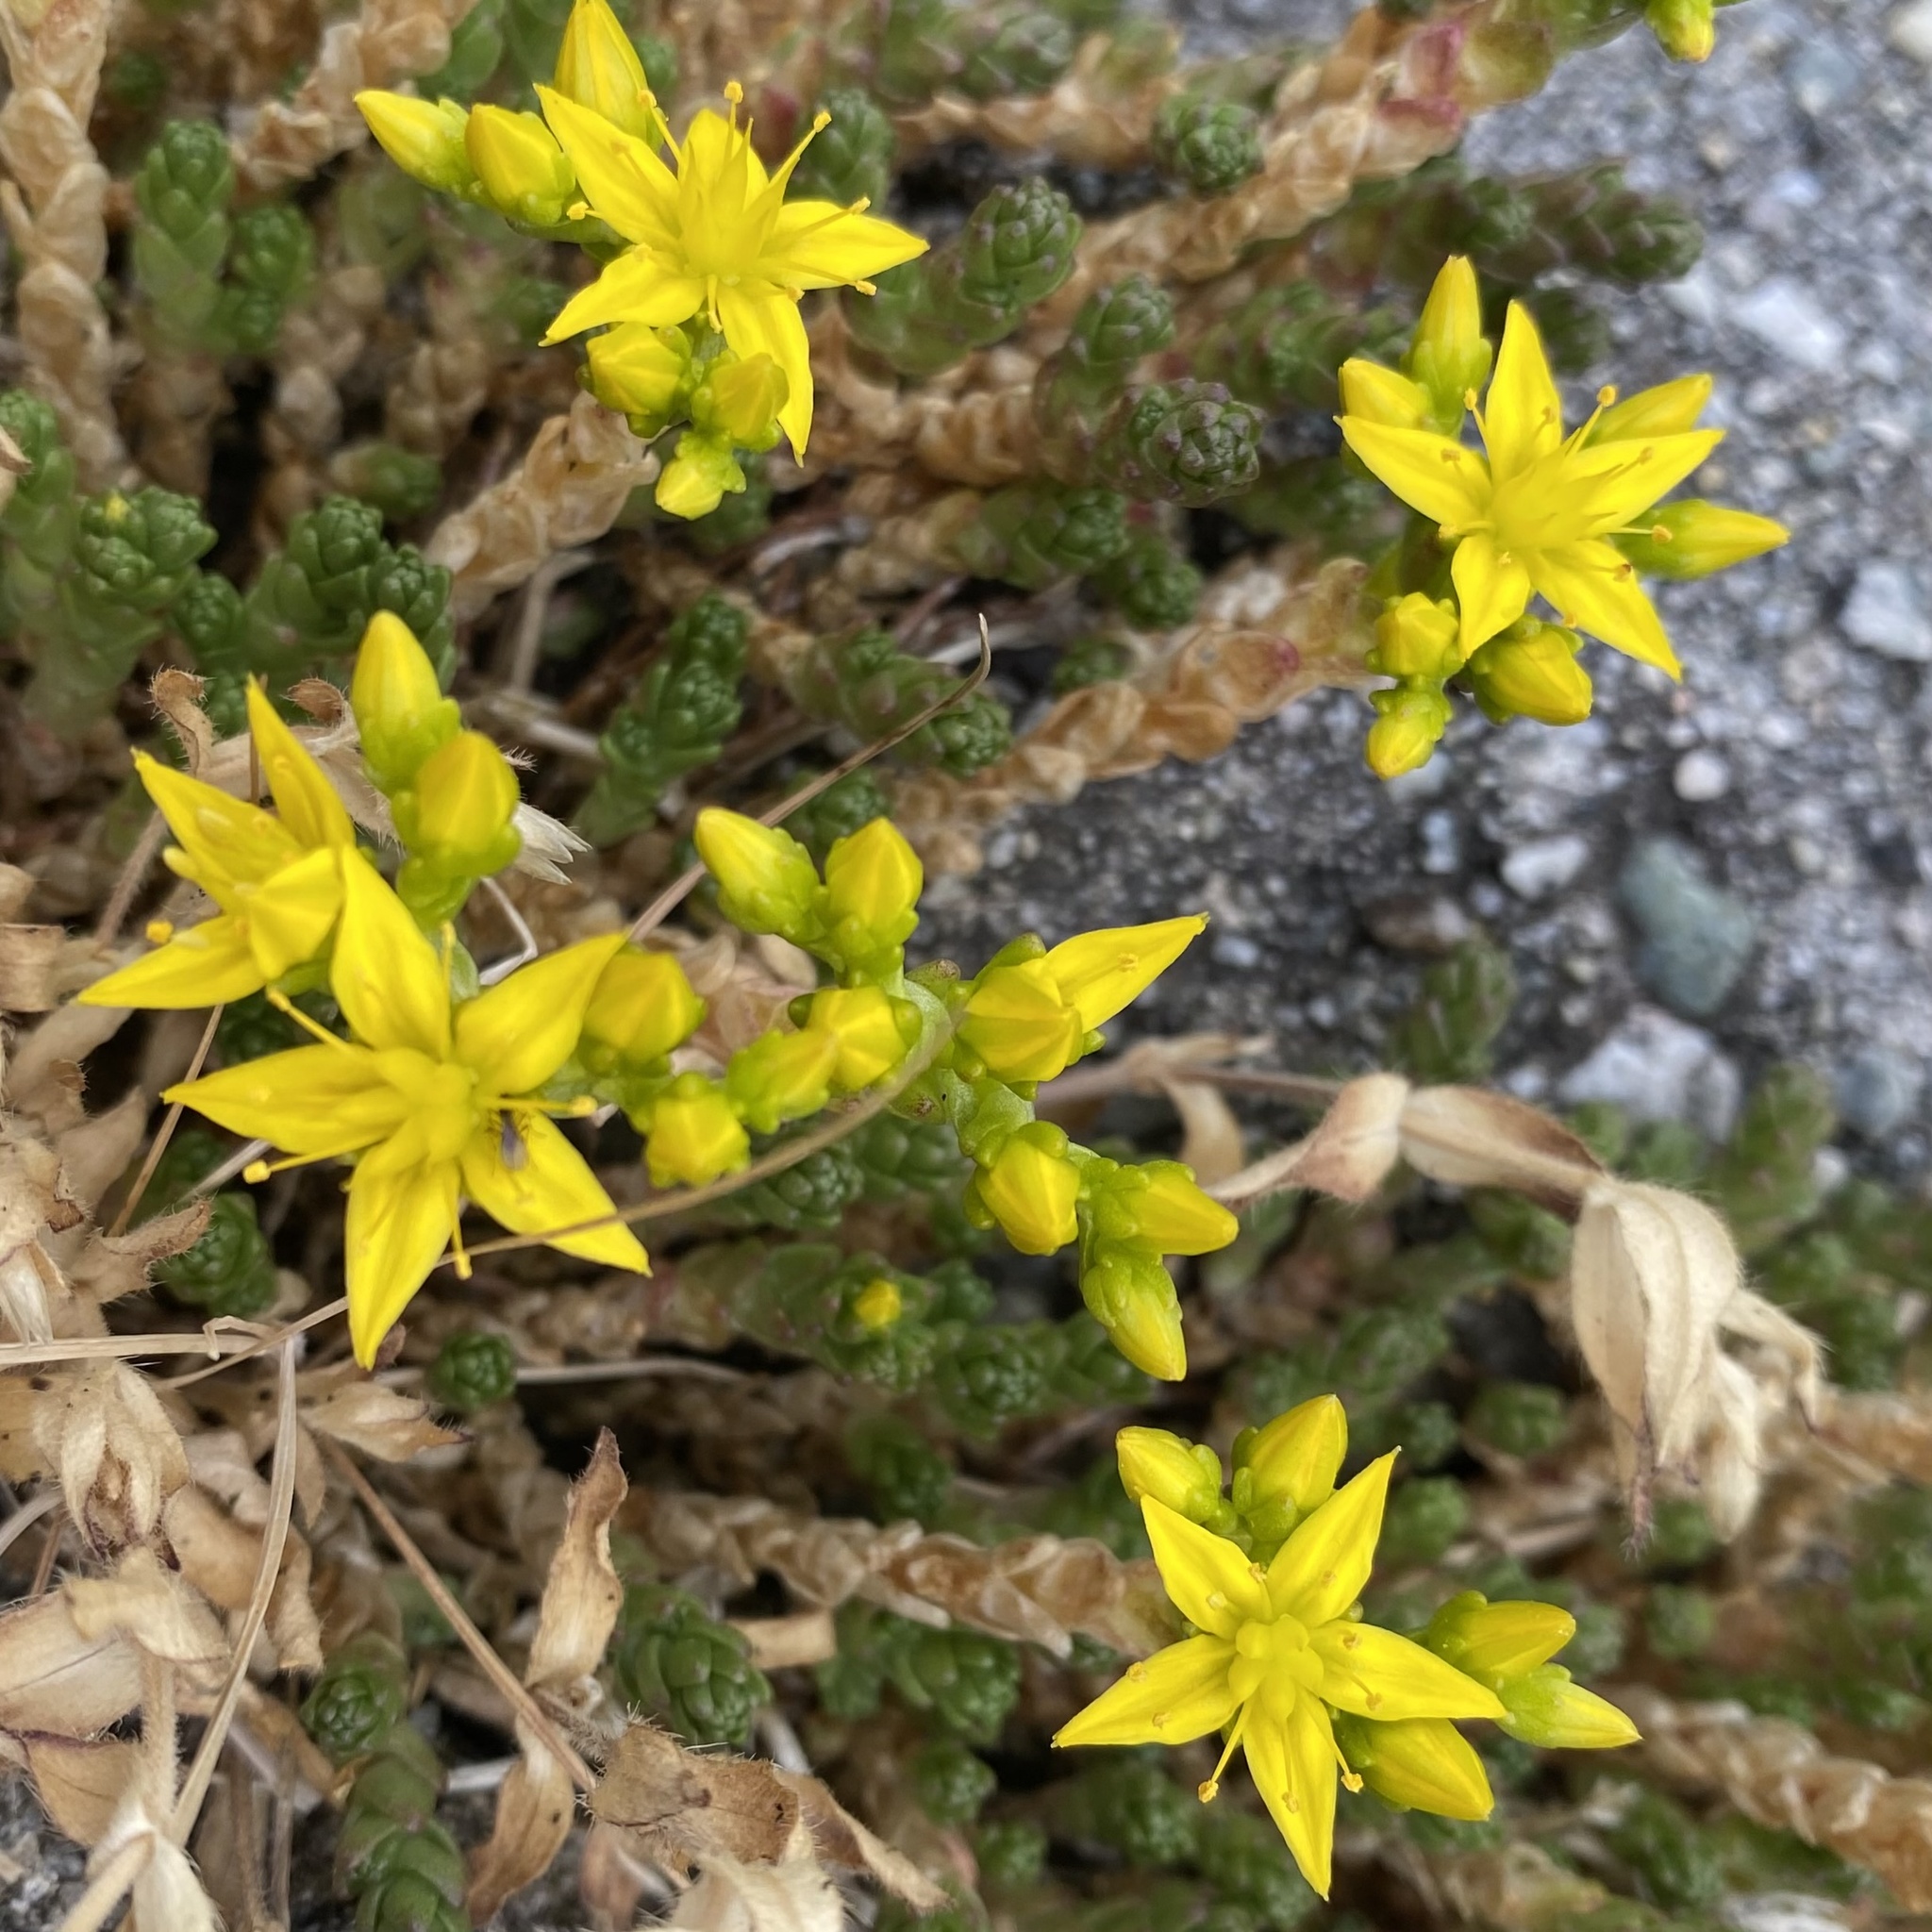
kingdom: Plantae
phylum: Tracheophyta
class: Magnoliopsida
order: Saxifragales
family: Crassulaceae
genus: Sedum
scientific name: Sedum acre
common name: Biting stonecrop
